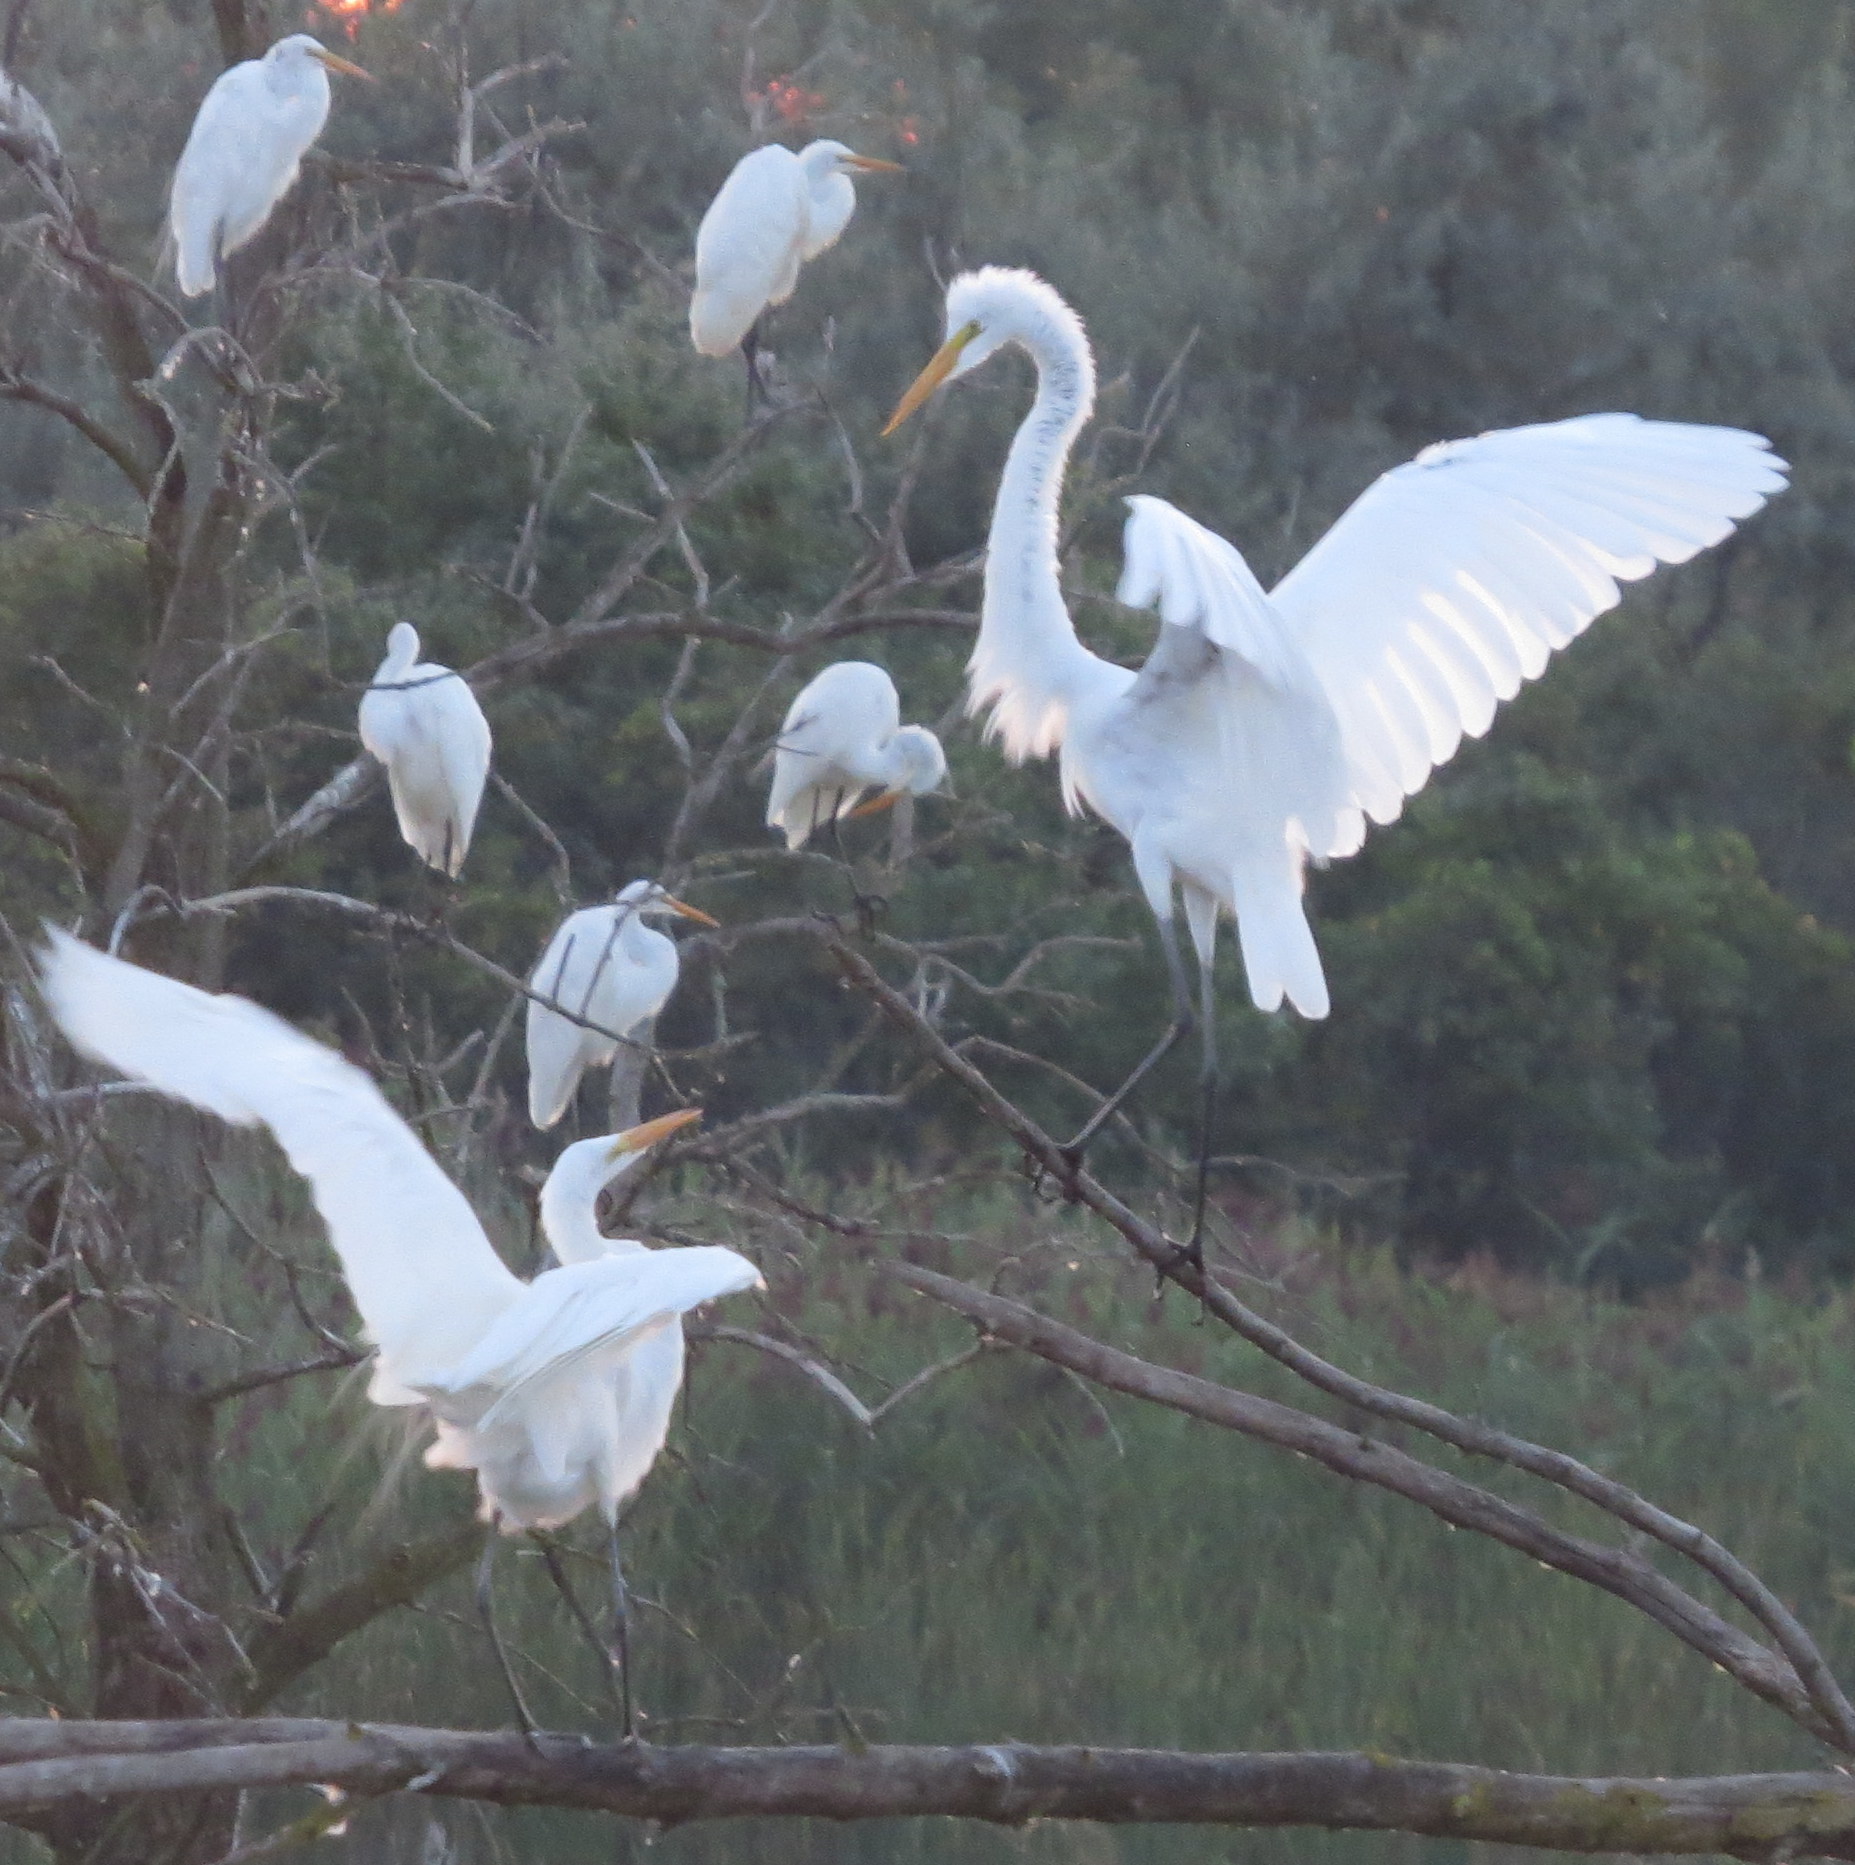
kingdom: Animalia
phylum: Chordata
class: Aves
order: Pelecaniformes
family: Ardeidae
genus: Ardea
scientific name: Ardea alba
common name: Great egret
